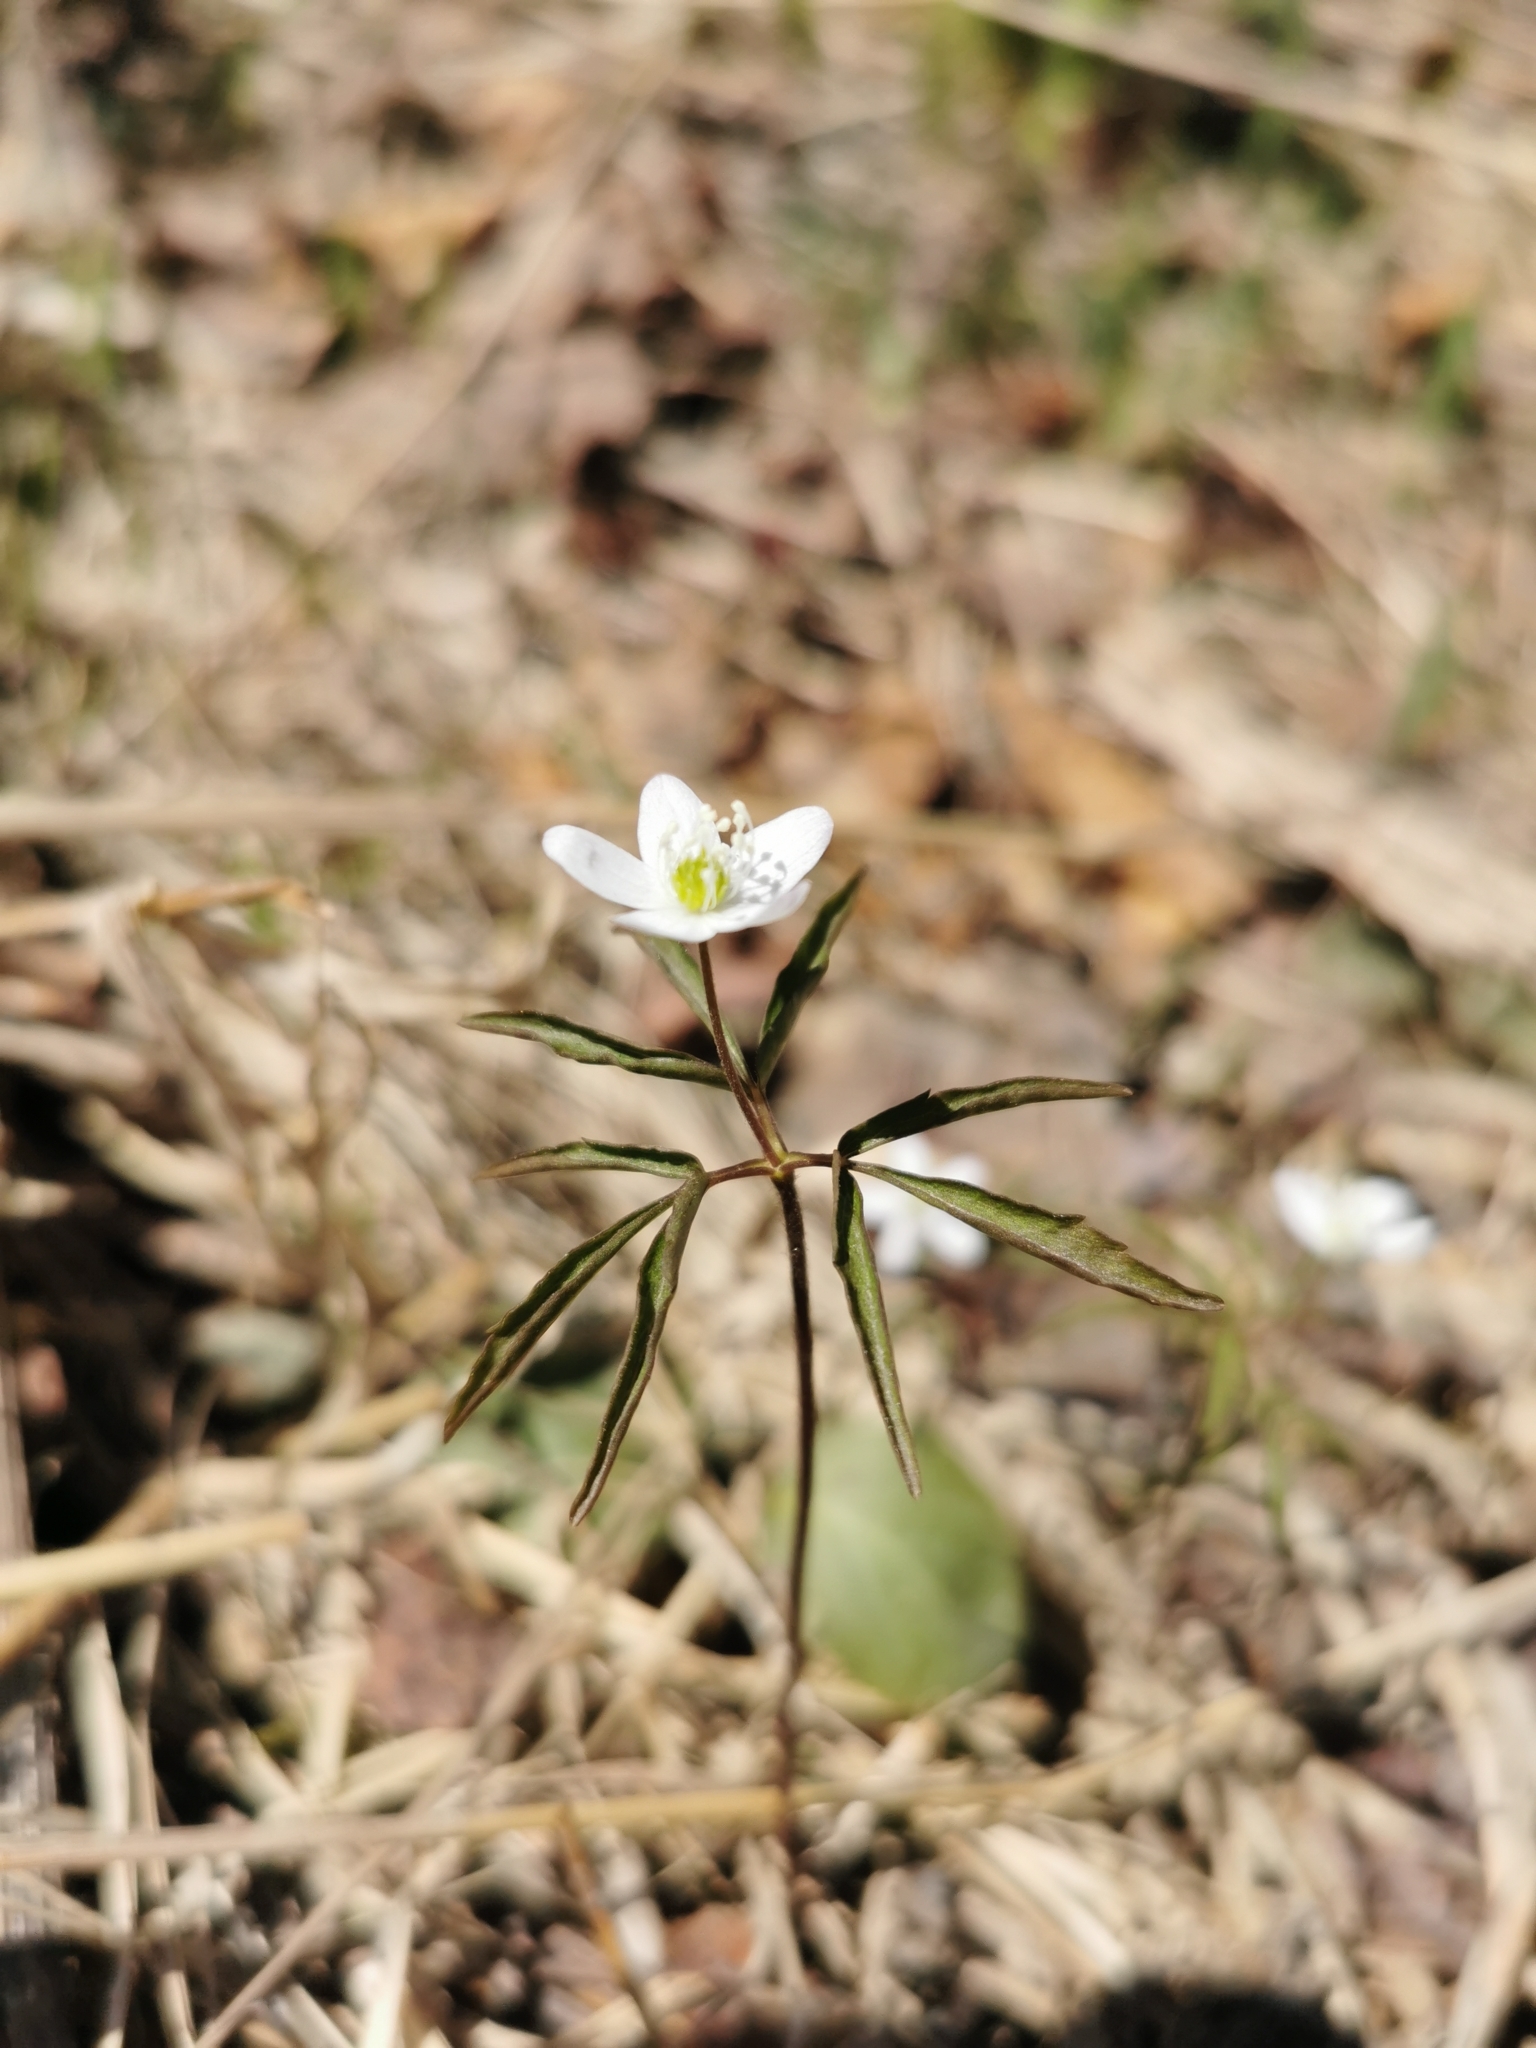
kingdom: Plantae
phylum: Tracheophyta
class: Magnoliopsida
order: Ranunculales
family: Ranunculaceae
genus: Anemone
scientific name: Anemone debilis
